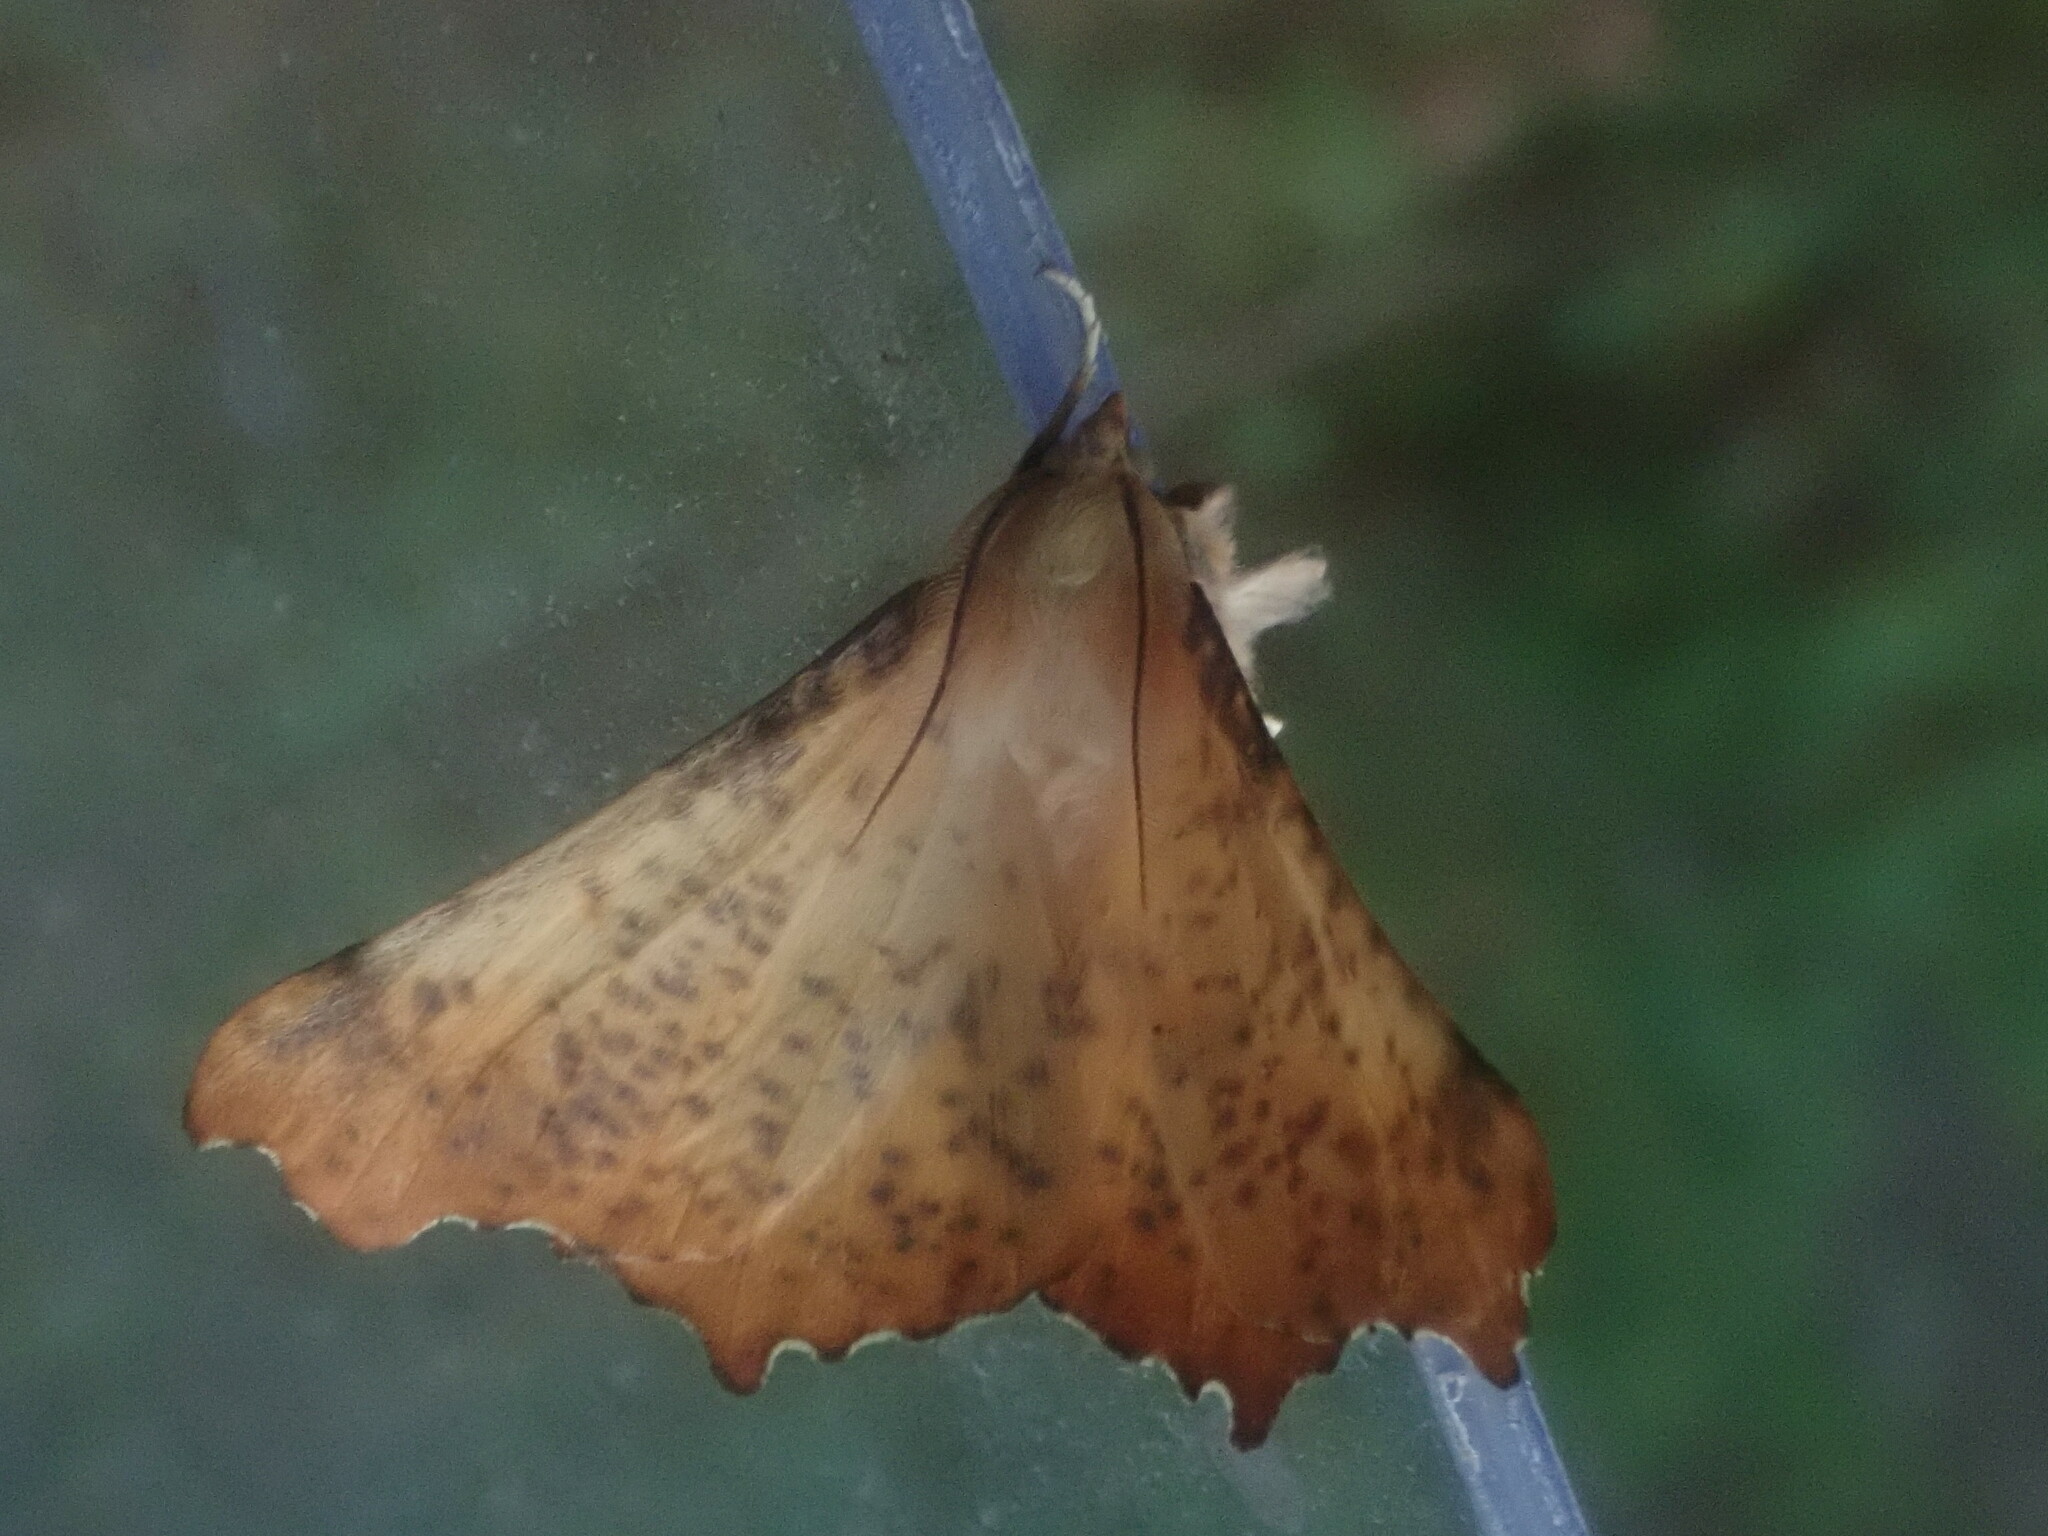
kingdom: Animalia
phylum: Arthropoda
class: Insecta
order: Lepidoptera
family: Geometridae
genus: Ennomos
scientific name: Ennomos magnaria
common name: Maple spanworm
